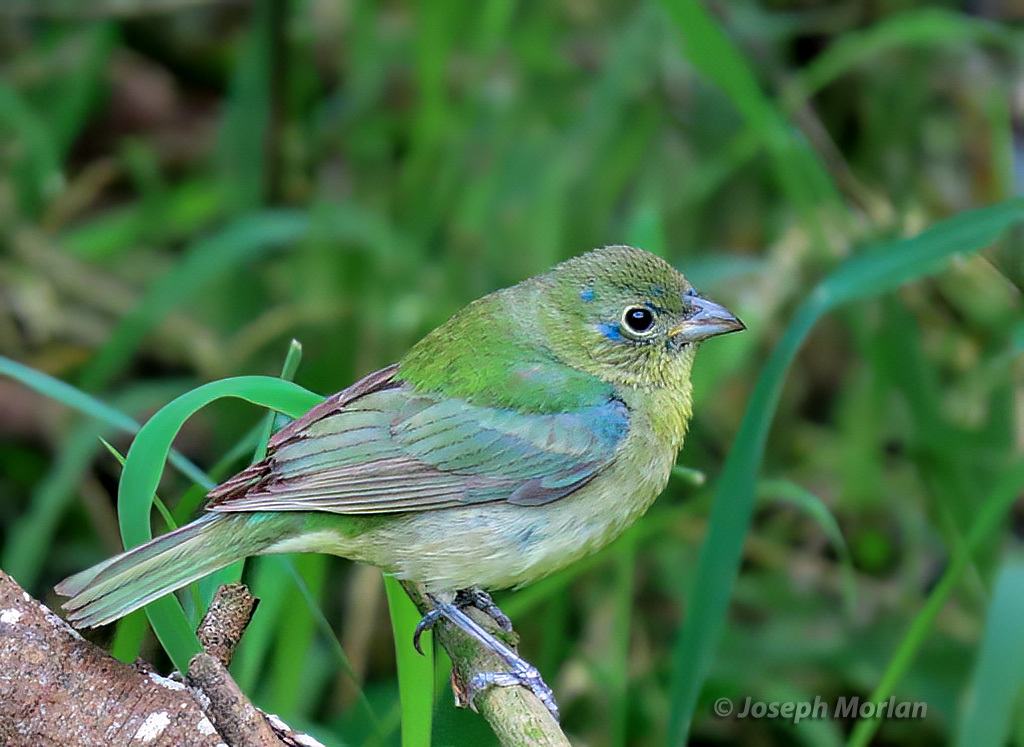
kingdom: Animalia
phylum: Chordata
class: Aves
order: Passeriformes
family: Cardinalidae
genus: Passerina
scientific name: Passerina ciris
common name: Painted bunting
